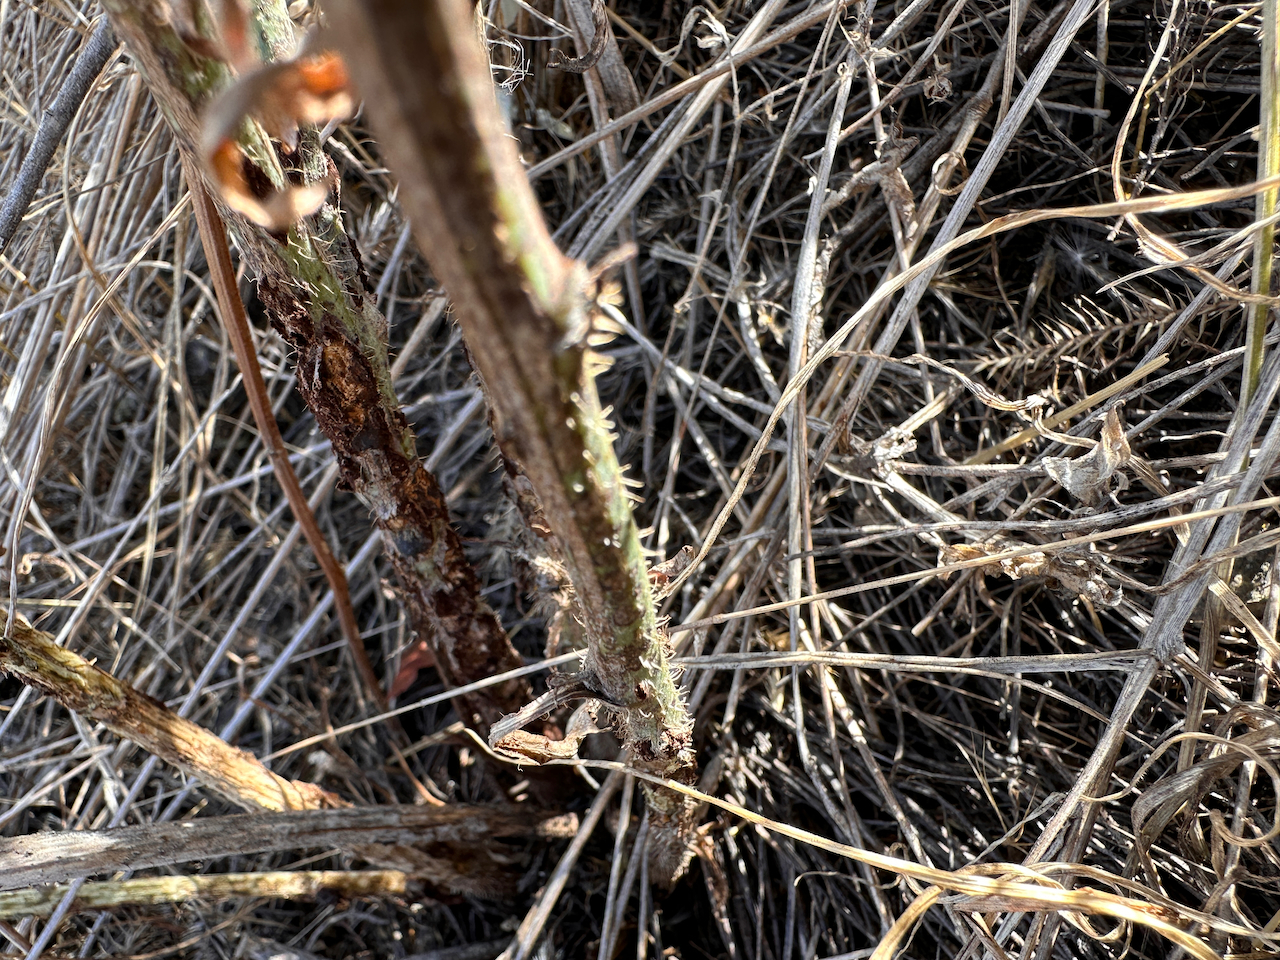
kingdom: Plantae
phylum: Tracheophyta
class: Magnoliopsida
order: Asterales
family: Asteraceae
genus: Chondrilla
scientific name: Chondrilla juncea
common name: Skeleton weed
